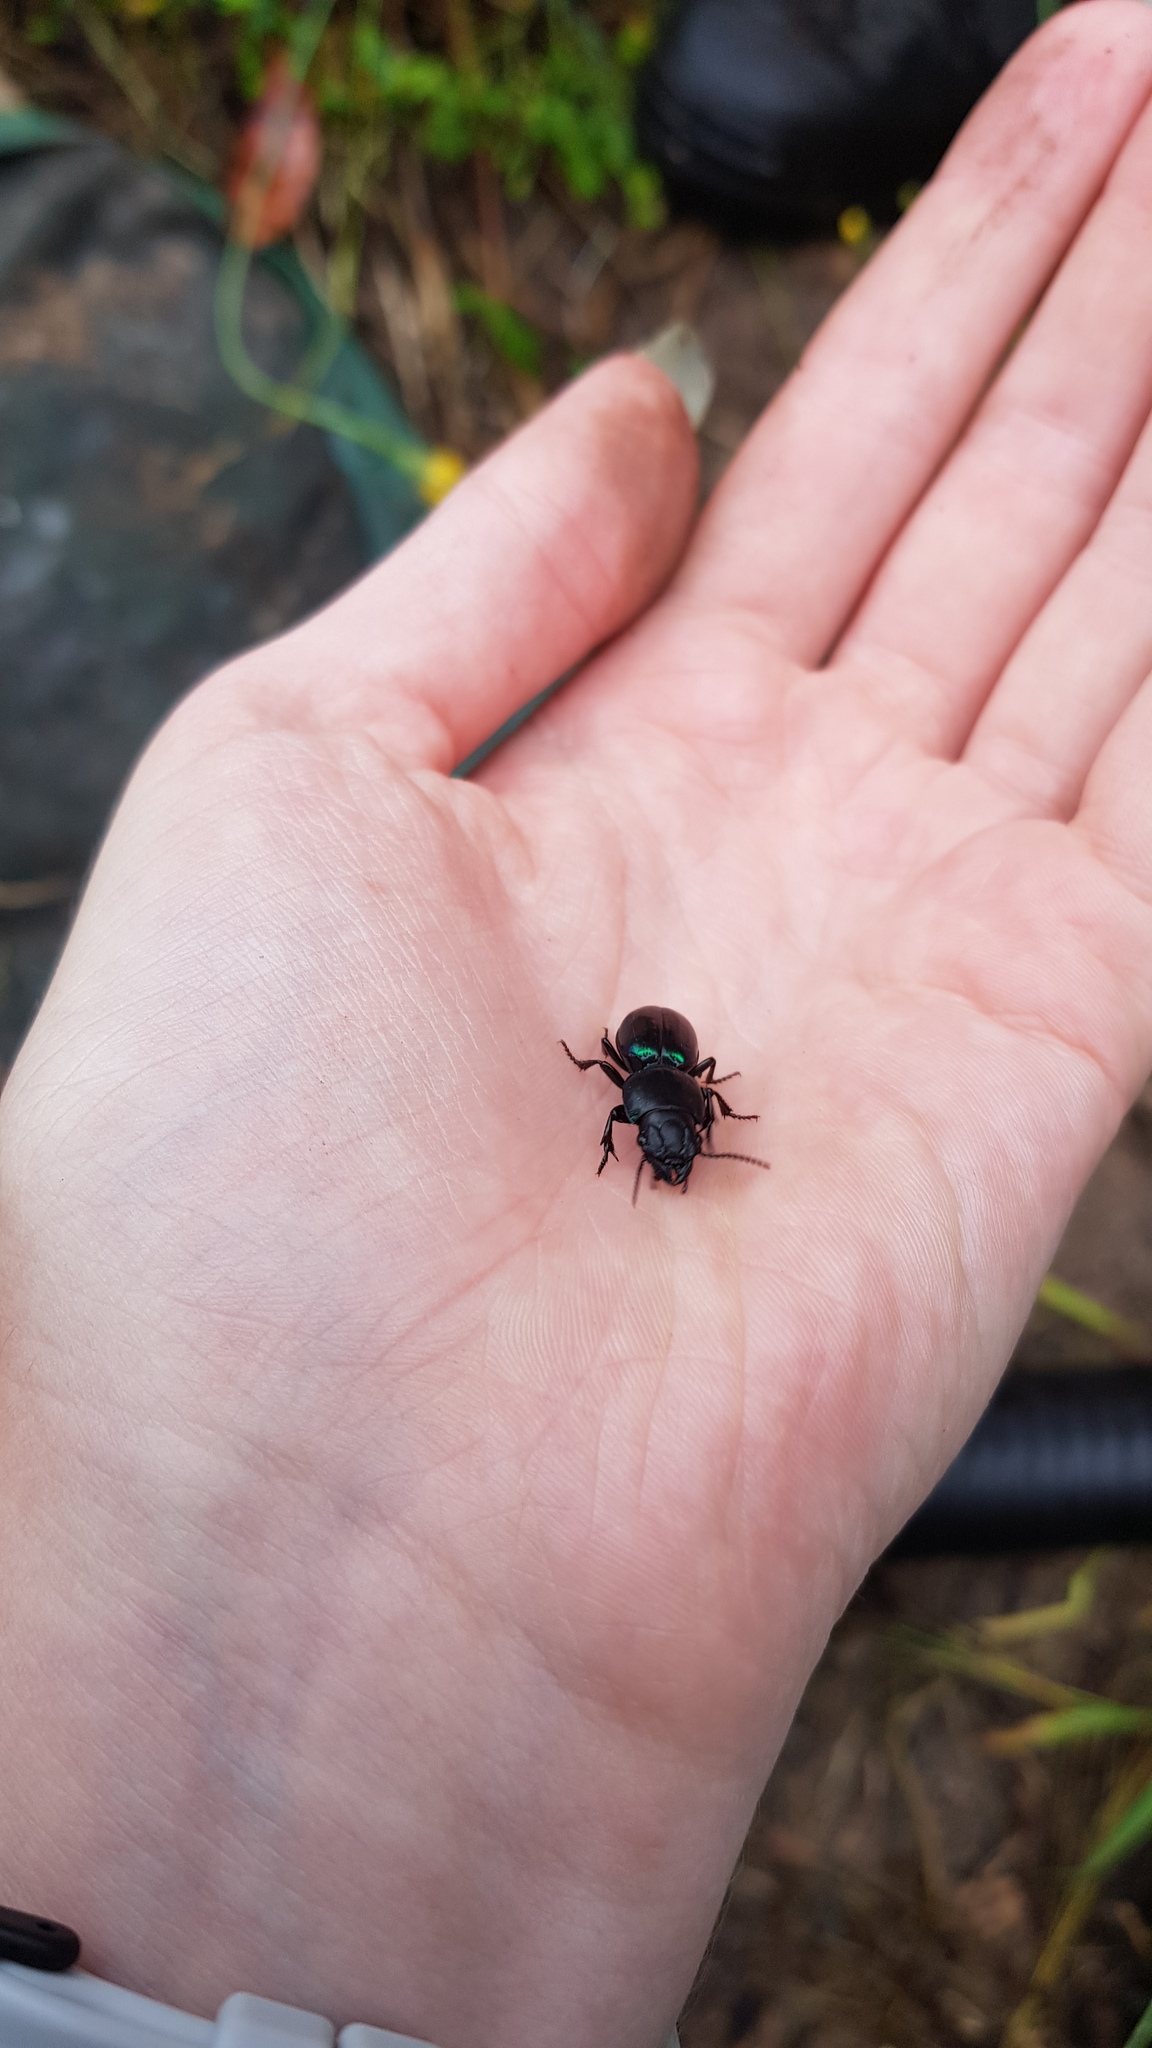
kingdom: Animalia
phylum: Arthropoda
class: Insecta
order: Coleoptera
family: Carabidae
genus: Carenum
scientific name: Carenum bonellii
